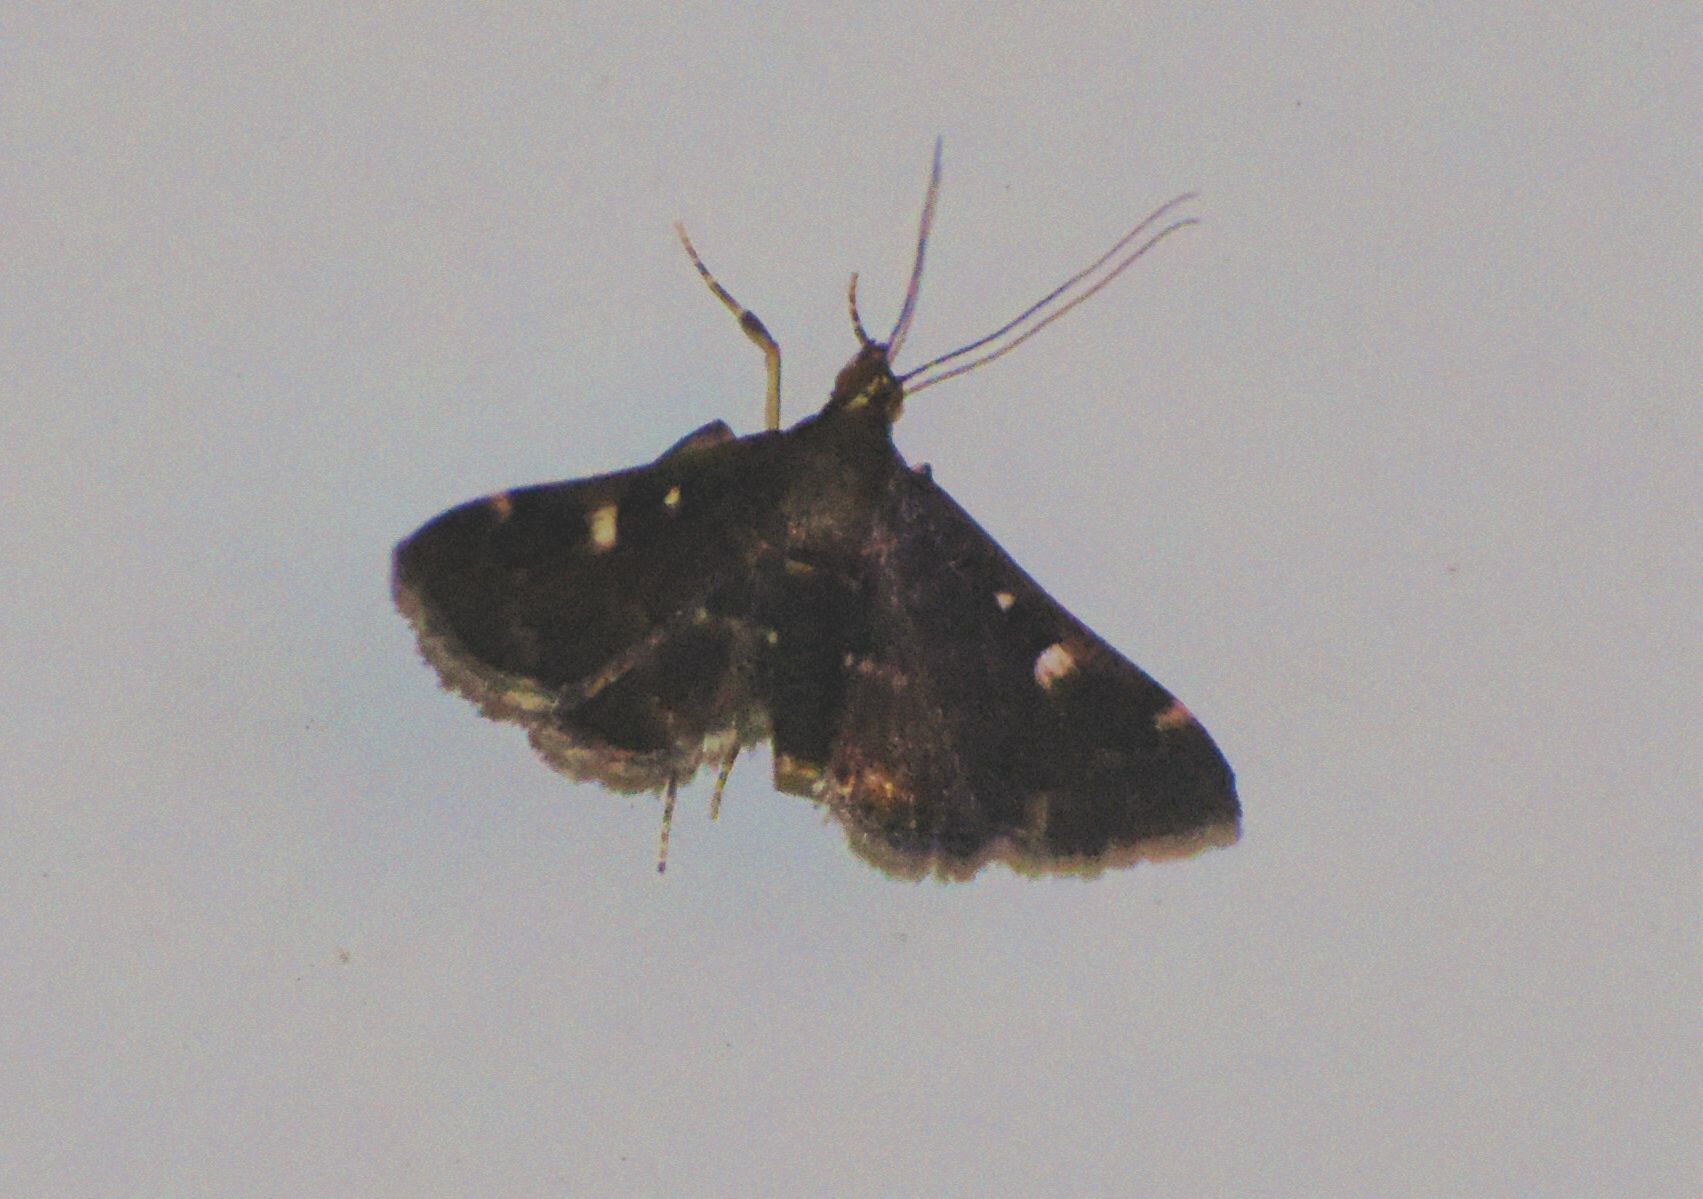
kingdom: Animalia
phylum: Arthropoda
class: Insecta
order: Lepidoptera
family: Crambidae
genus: Piletocera
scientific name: Piletocera meekii
